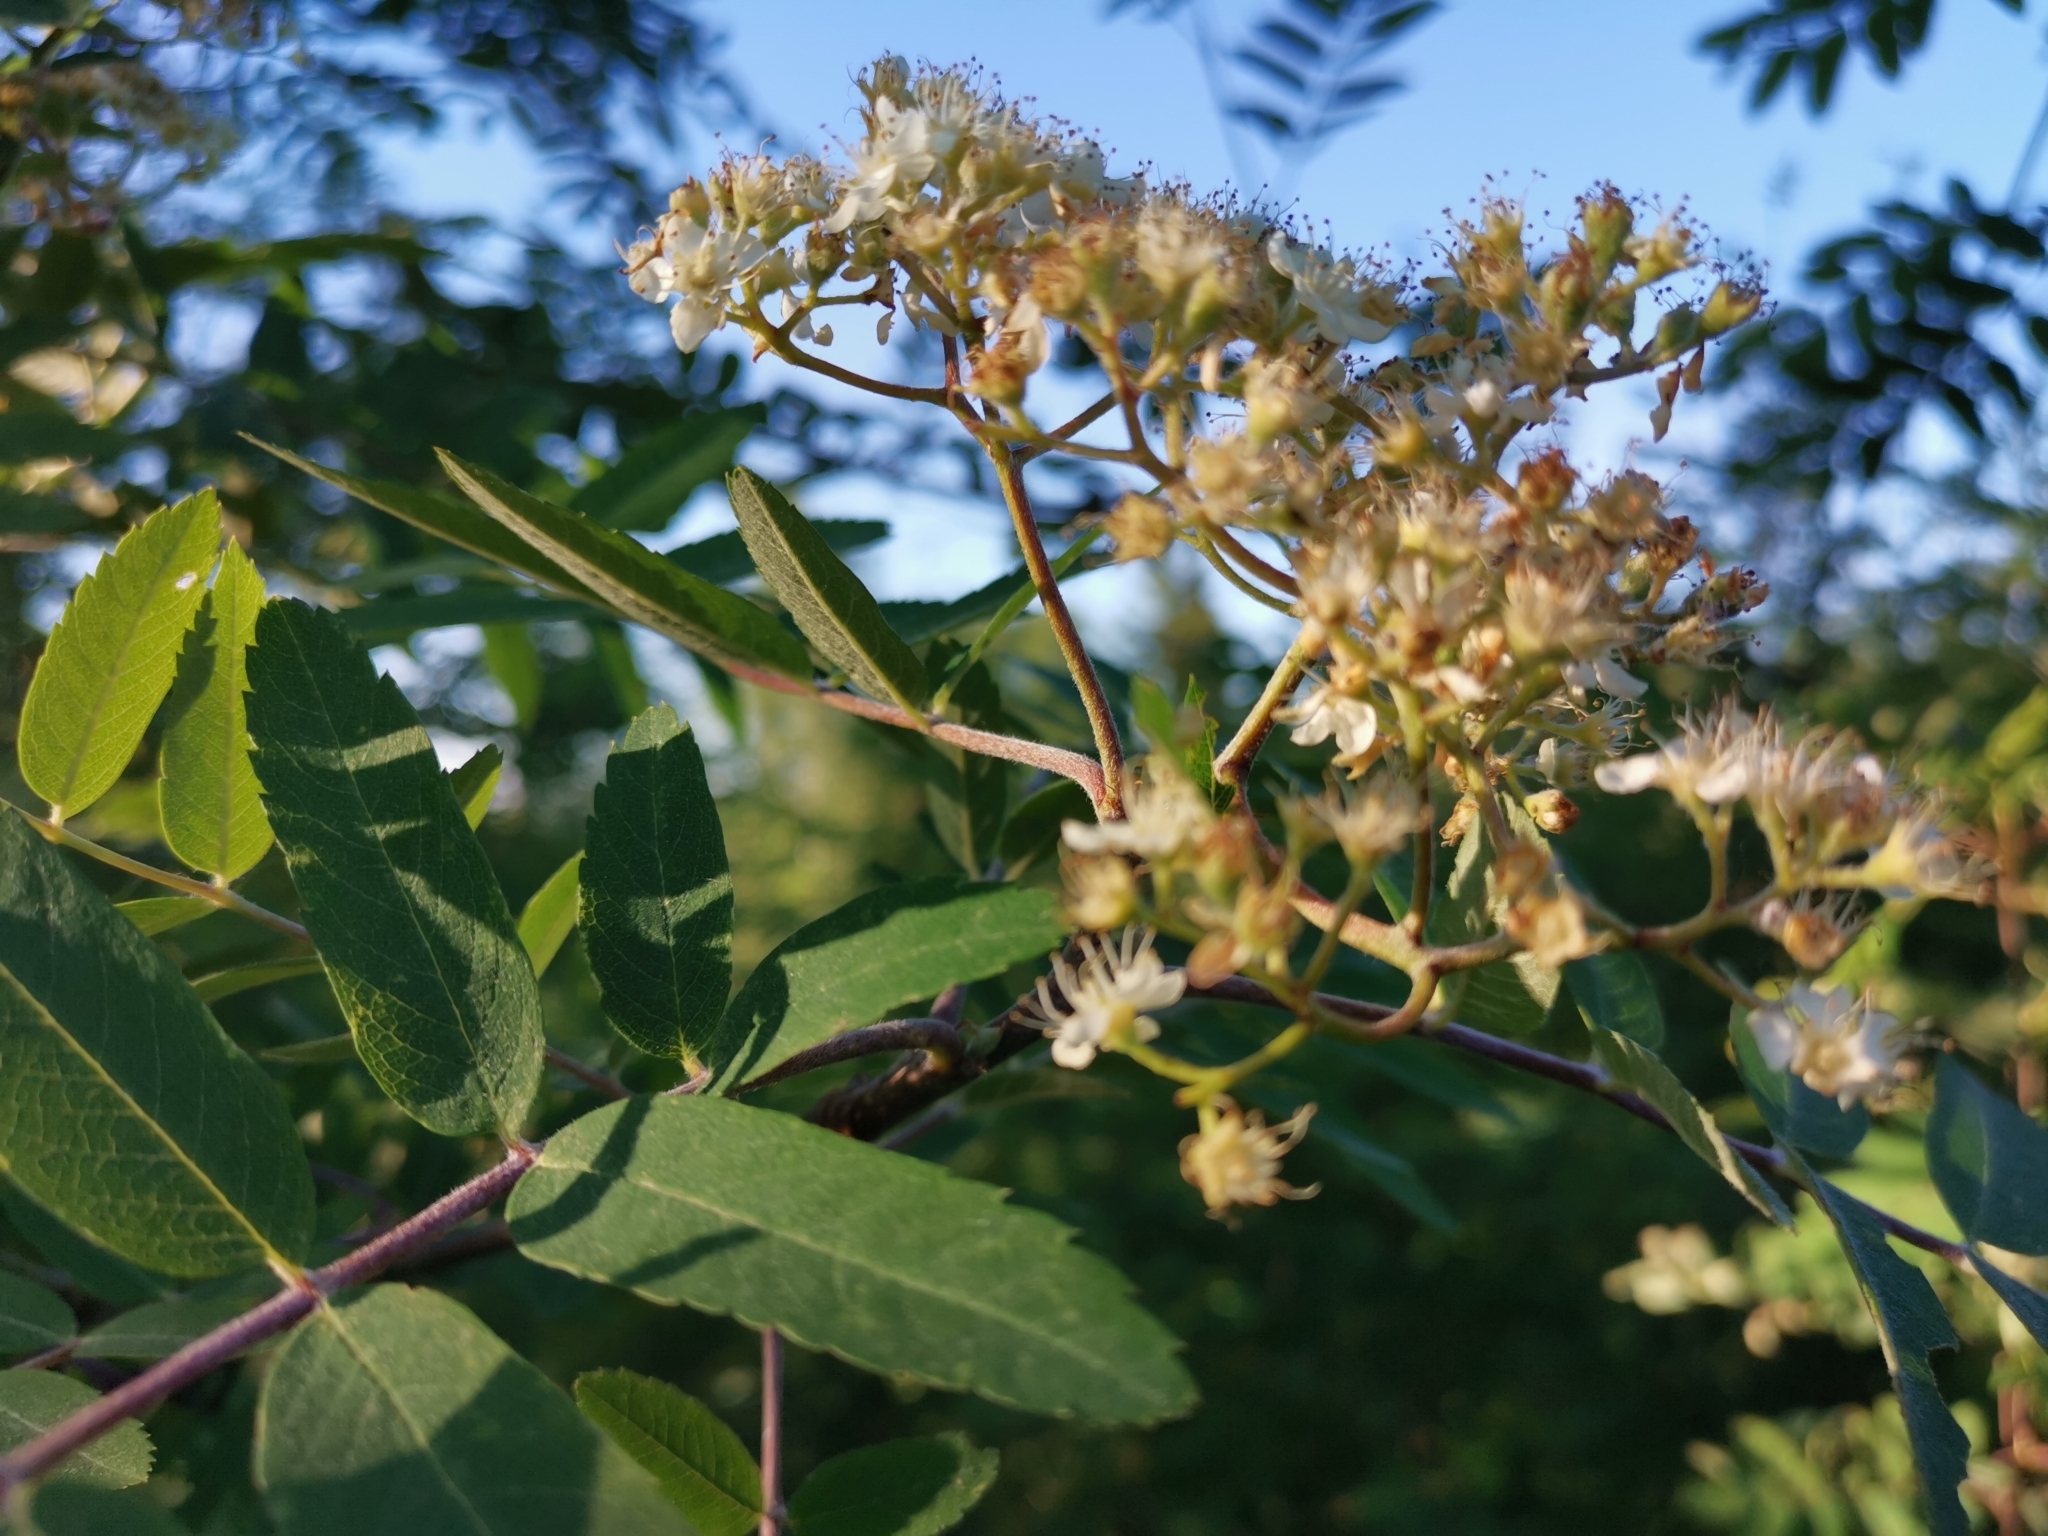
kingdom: Plantae
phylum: Tracheophyta
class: Magnoliopsida
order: Rosales
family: Rosaceae
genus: Sorbus
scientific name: Sorbus aucuparia
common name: Rowan
